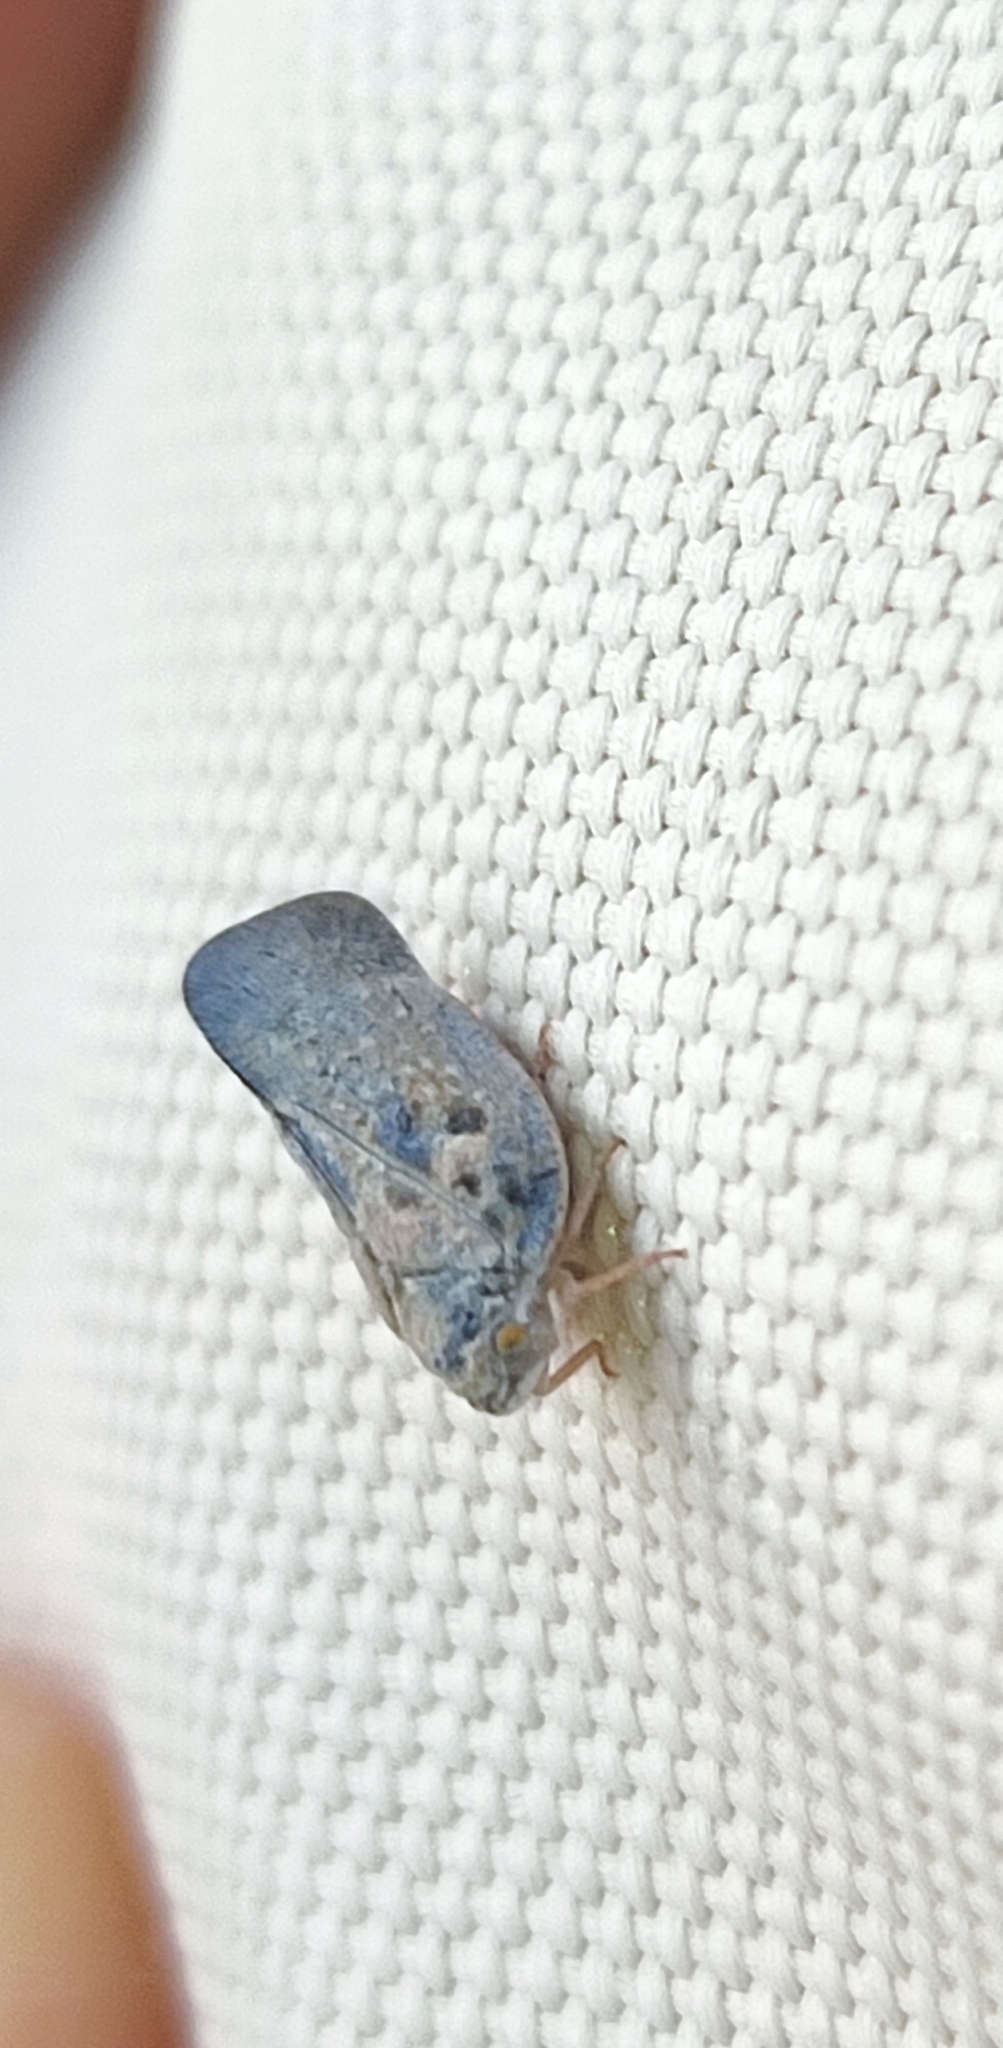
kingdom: Animalia
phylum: Arthropoda
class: Insecta
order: Hemiptera
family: Flatidae
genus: Metcalfa
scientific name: Metcalfa pruinosa
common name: Citrus flatid planthopper
